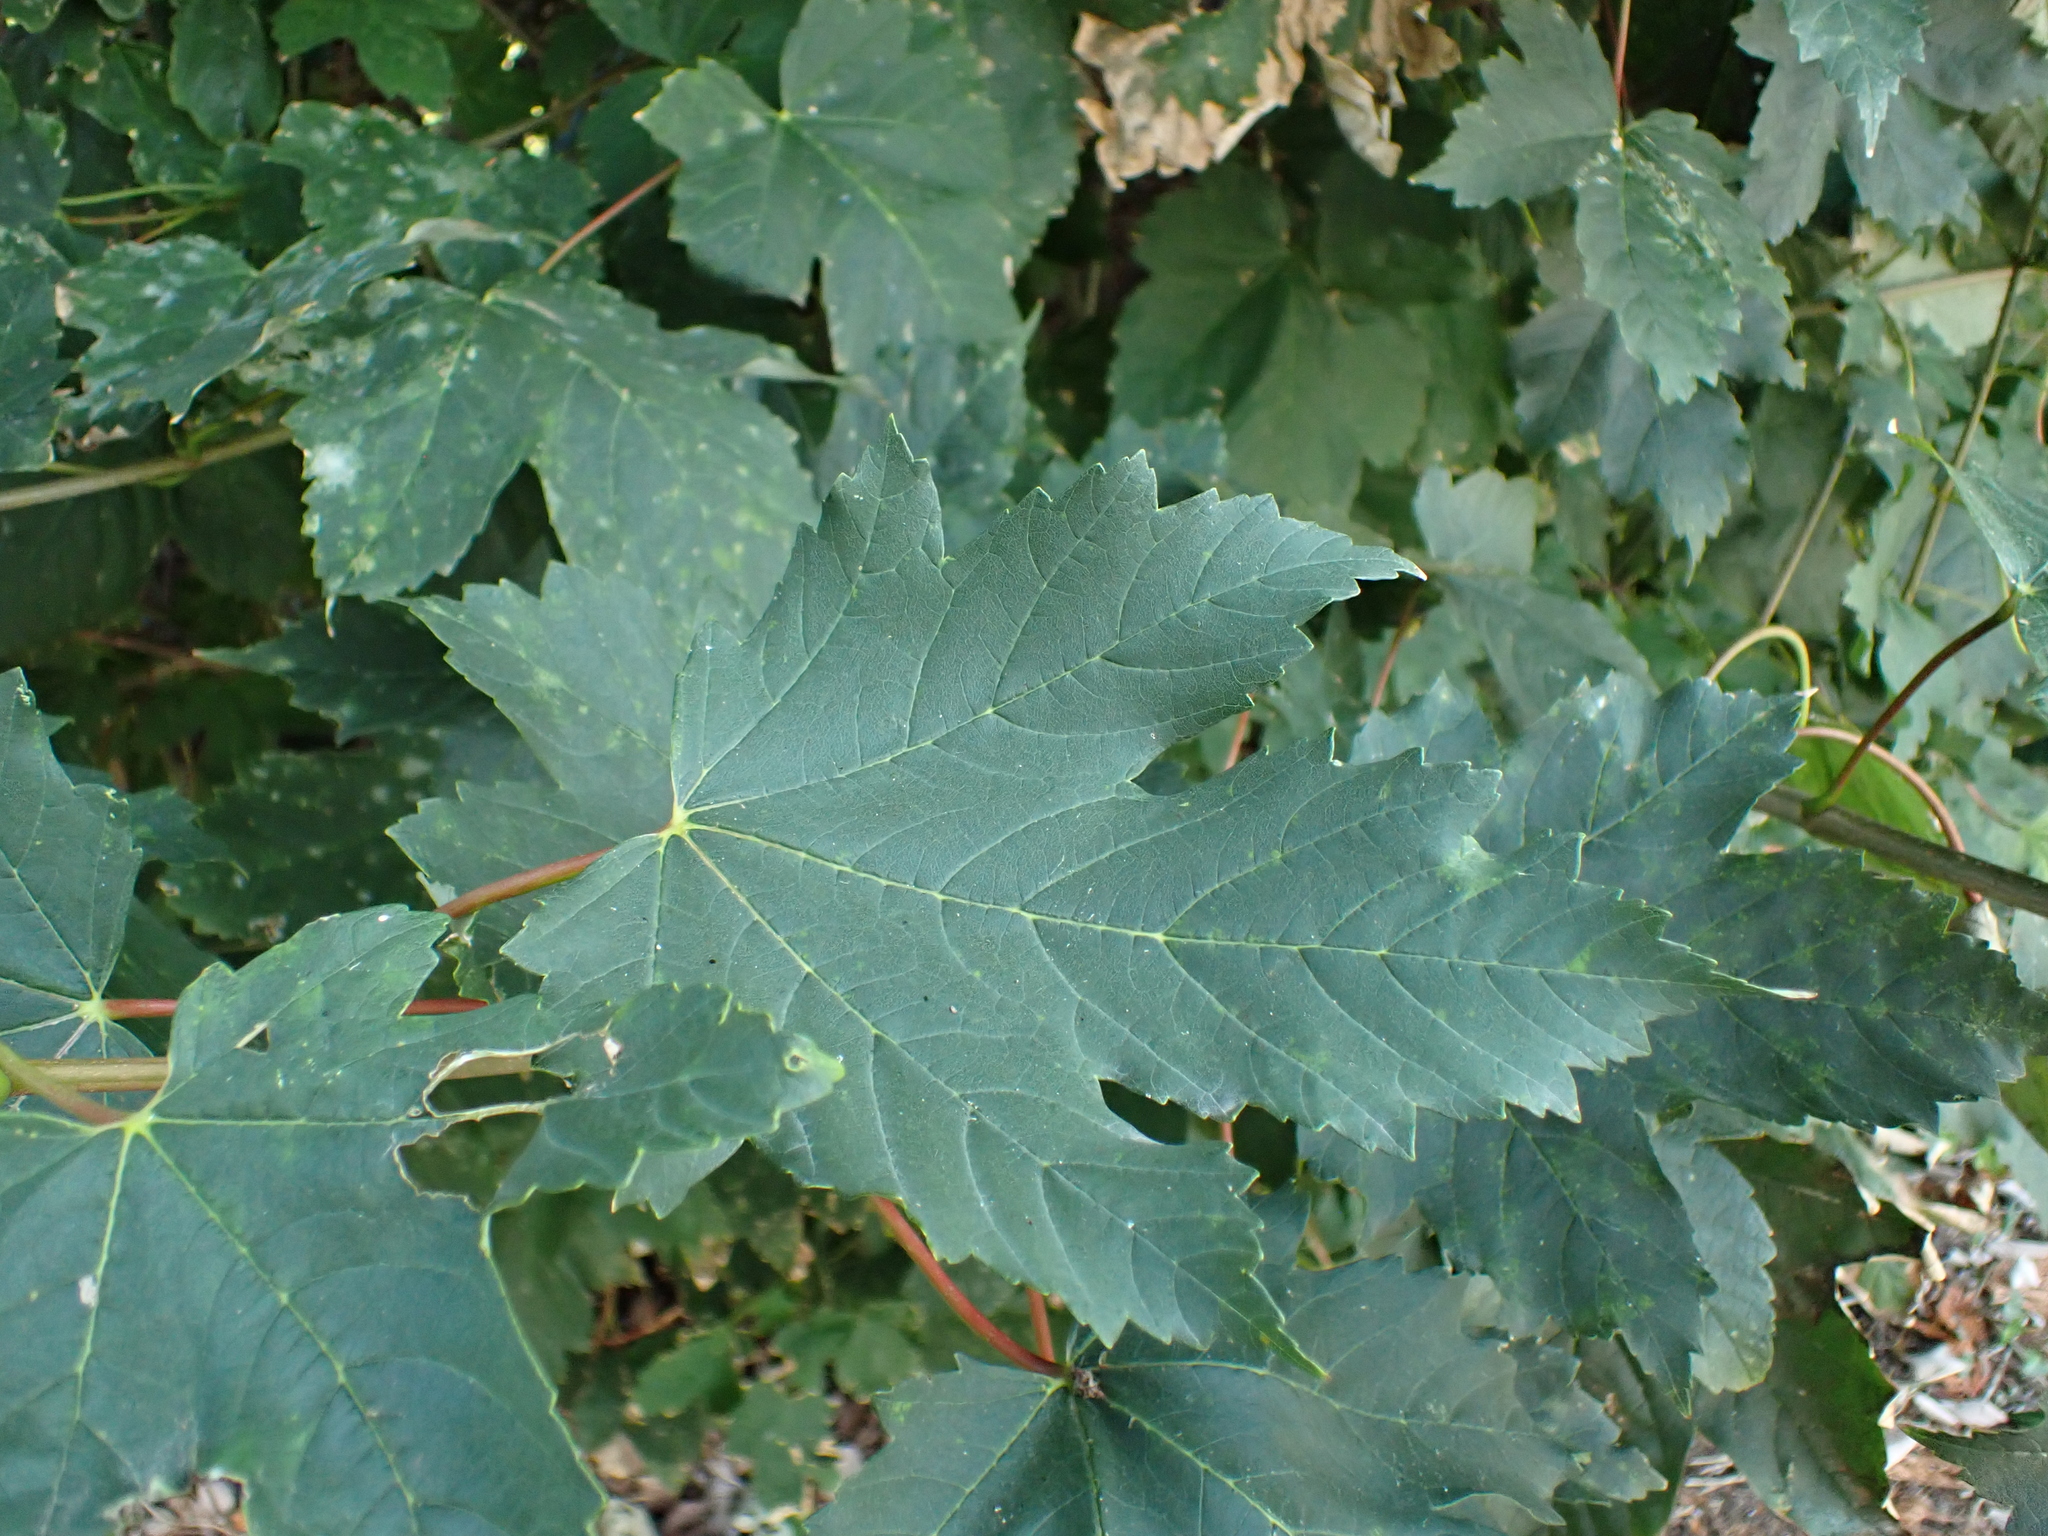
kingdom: Plantae
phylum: Tracheophyta
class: Magnoliopsida
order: Sapindales
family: Sapindaceae
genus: Acer
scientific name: Acer pseudoplatanus
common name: Sycamore
